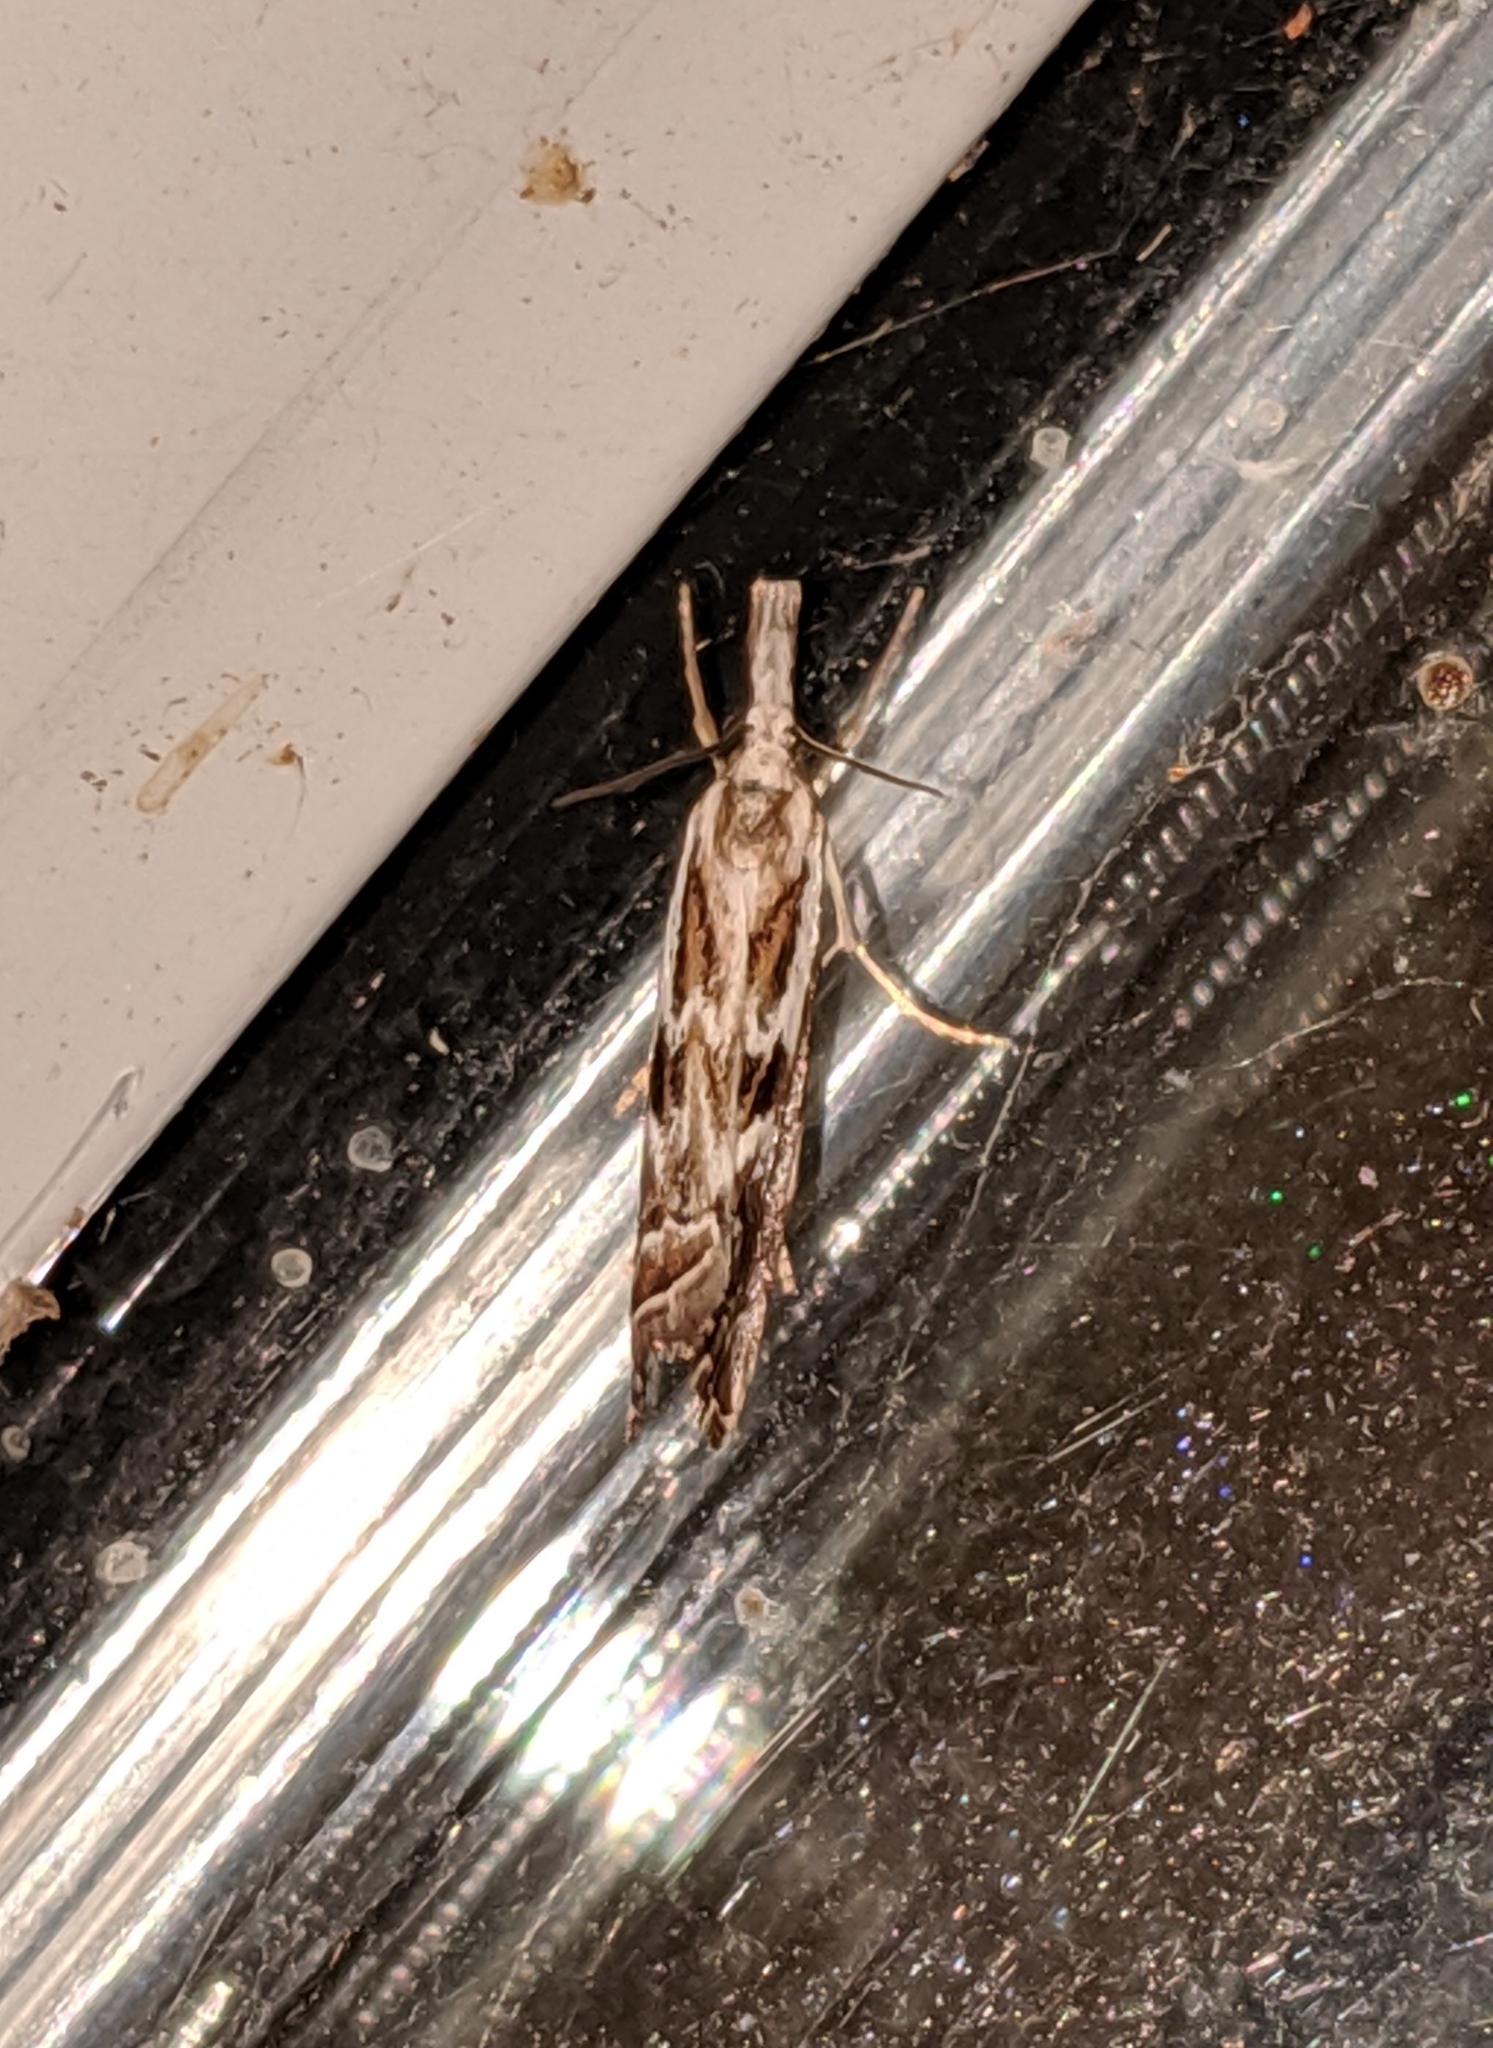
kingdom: Animalia
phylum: Arthropoda
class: Insecta
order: Lepidoptera
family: Crambidae
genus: Catoptria
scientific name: Catoptria oregonicus
